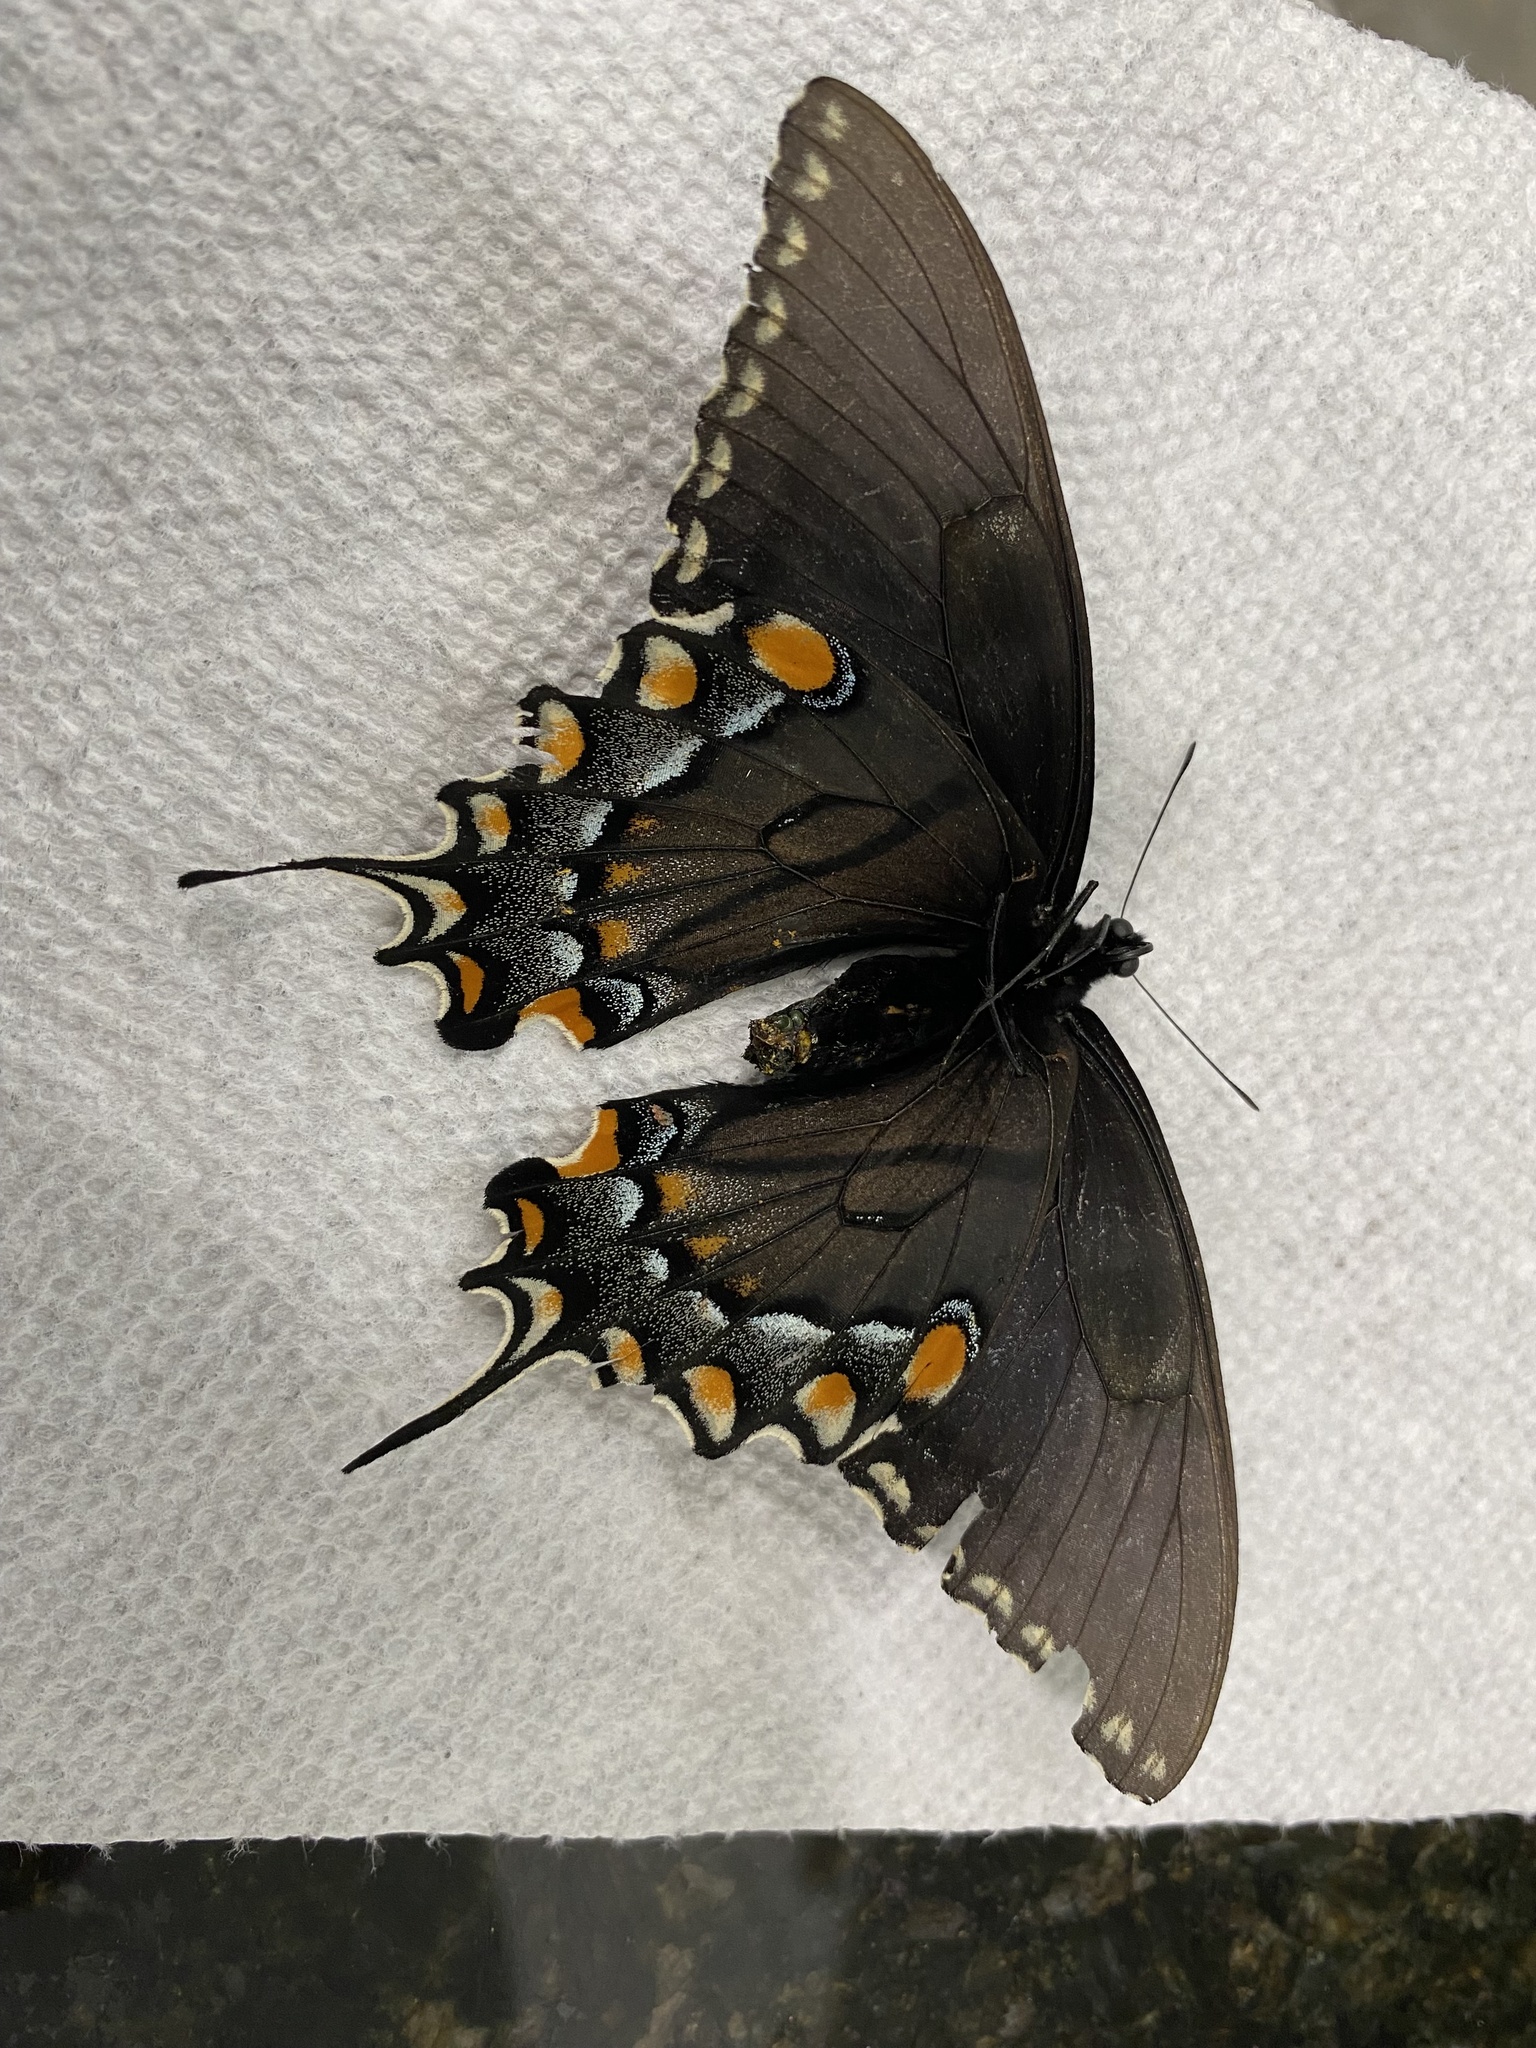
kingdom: Animalia
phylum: Arthropoda
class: Insecta
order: Lepidoptera
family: Papilionidae
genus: Papilio
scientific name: Papilio glaucus
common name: Tiger swallowtail
